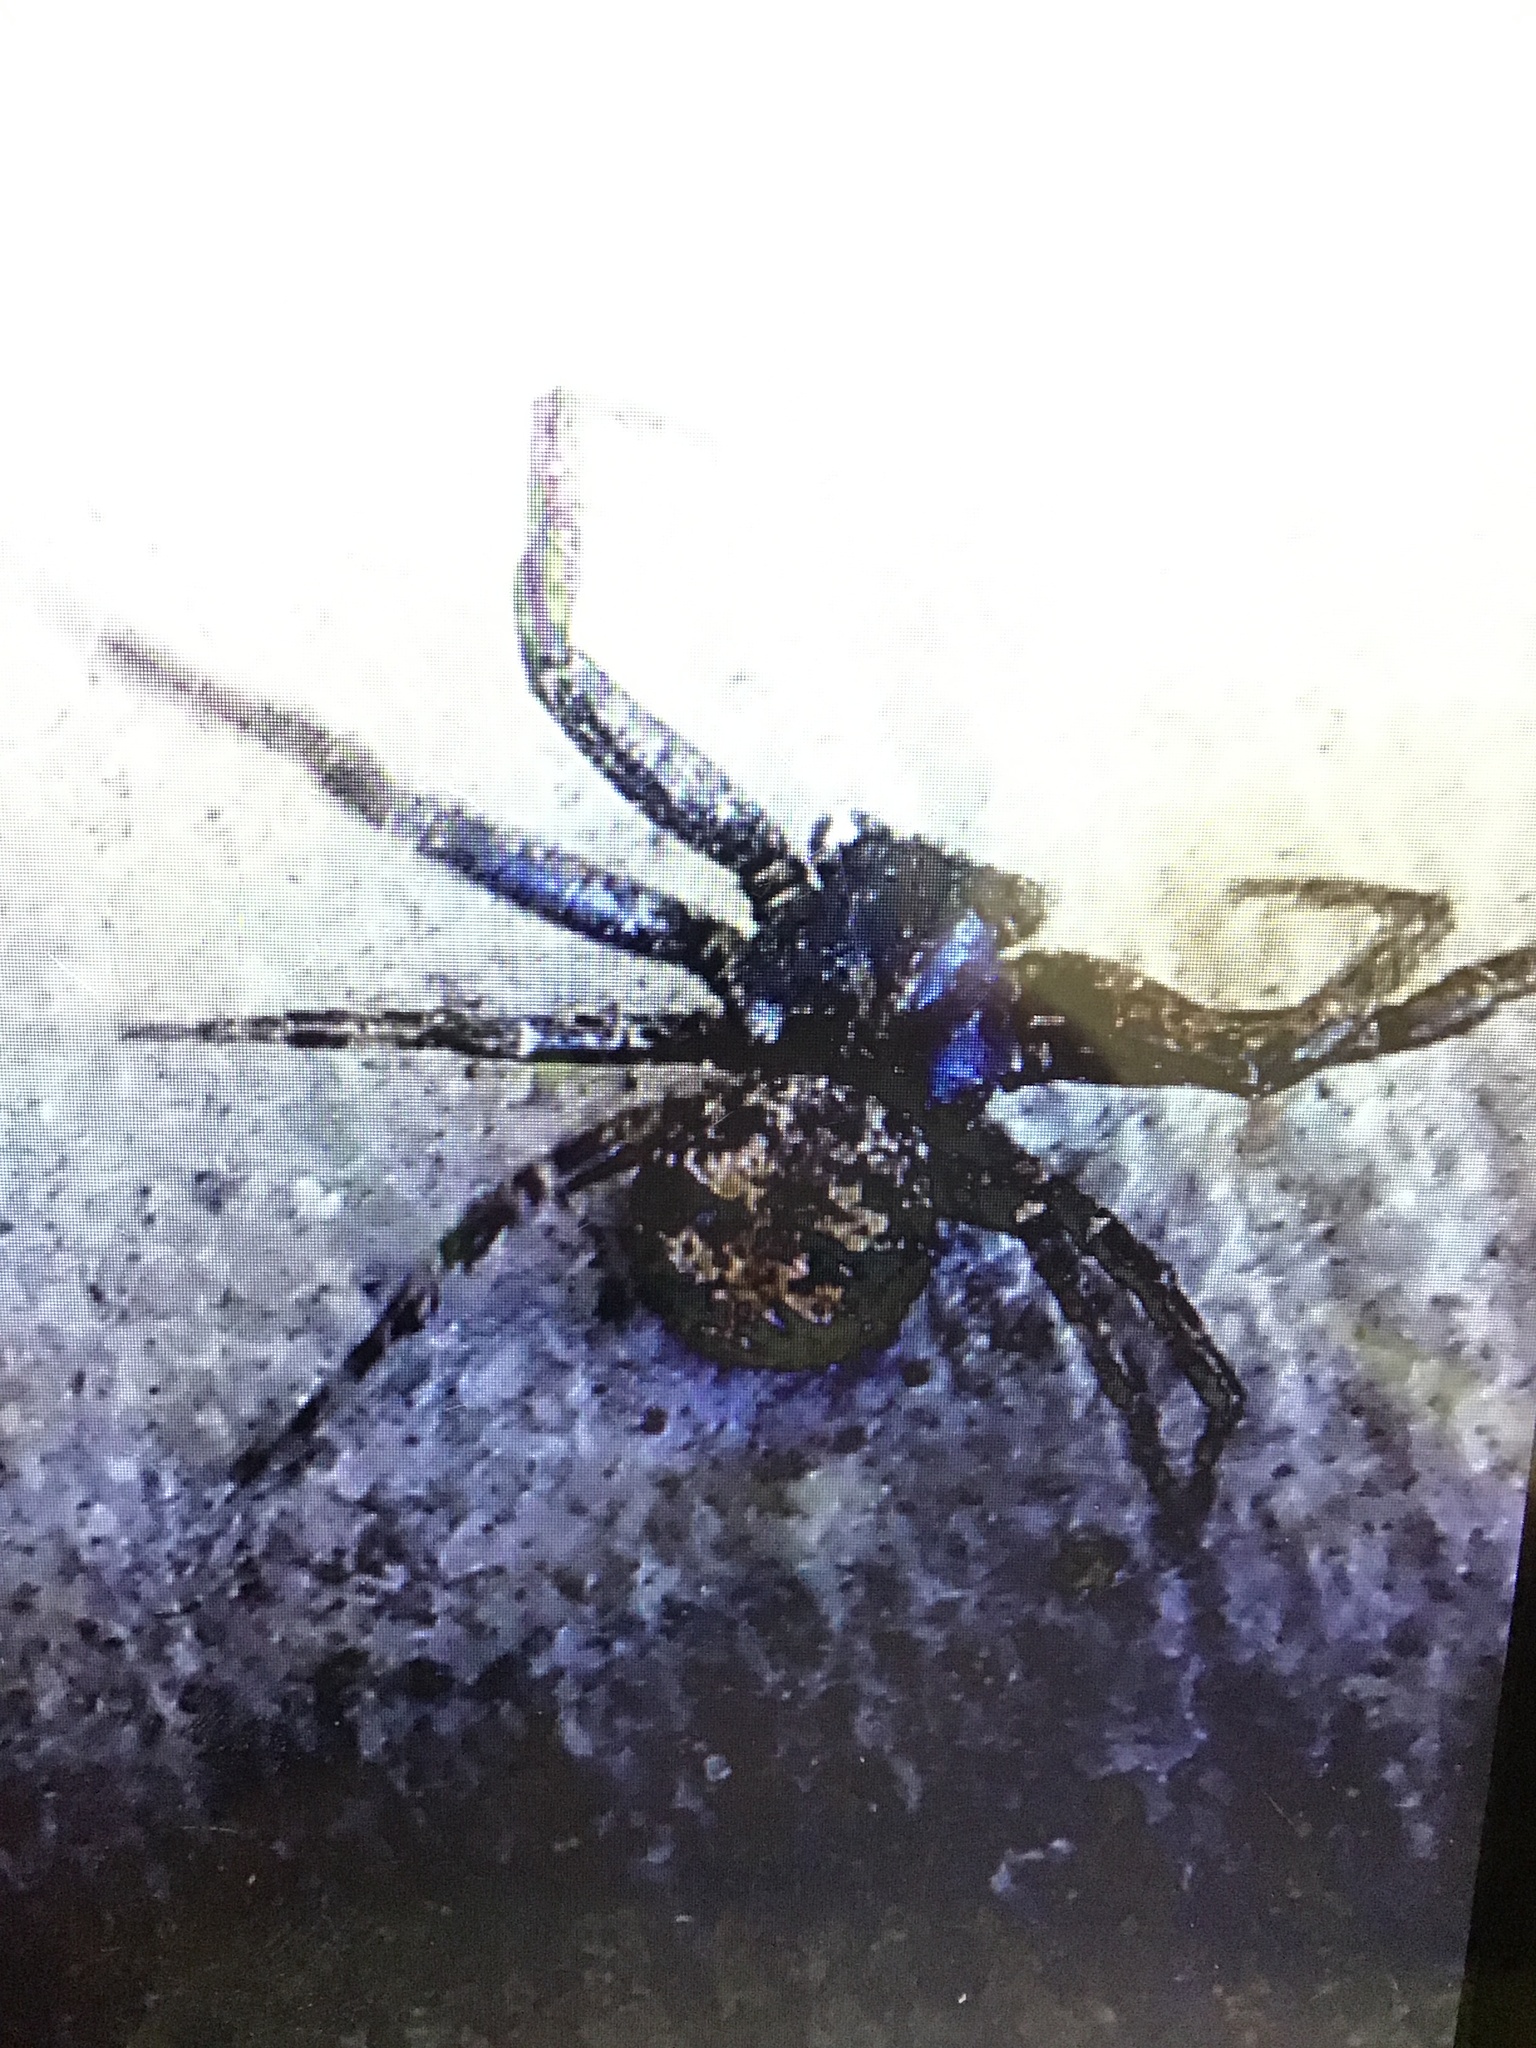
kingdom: Animalia
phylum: Arthropoda
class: Arachnida
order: Araneae
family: Thomisidae
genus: Bassaniana
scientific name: Bassaniana utahensis
